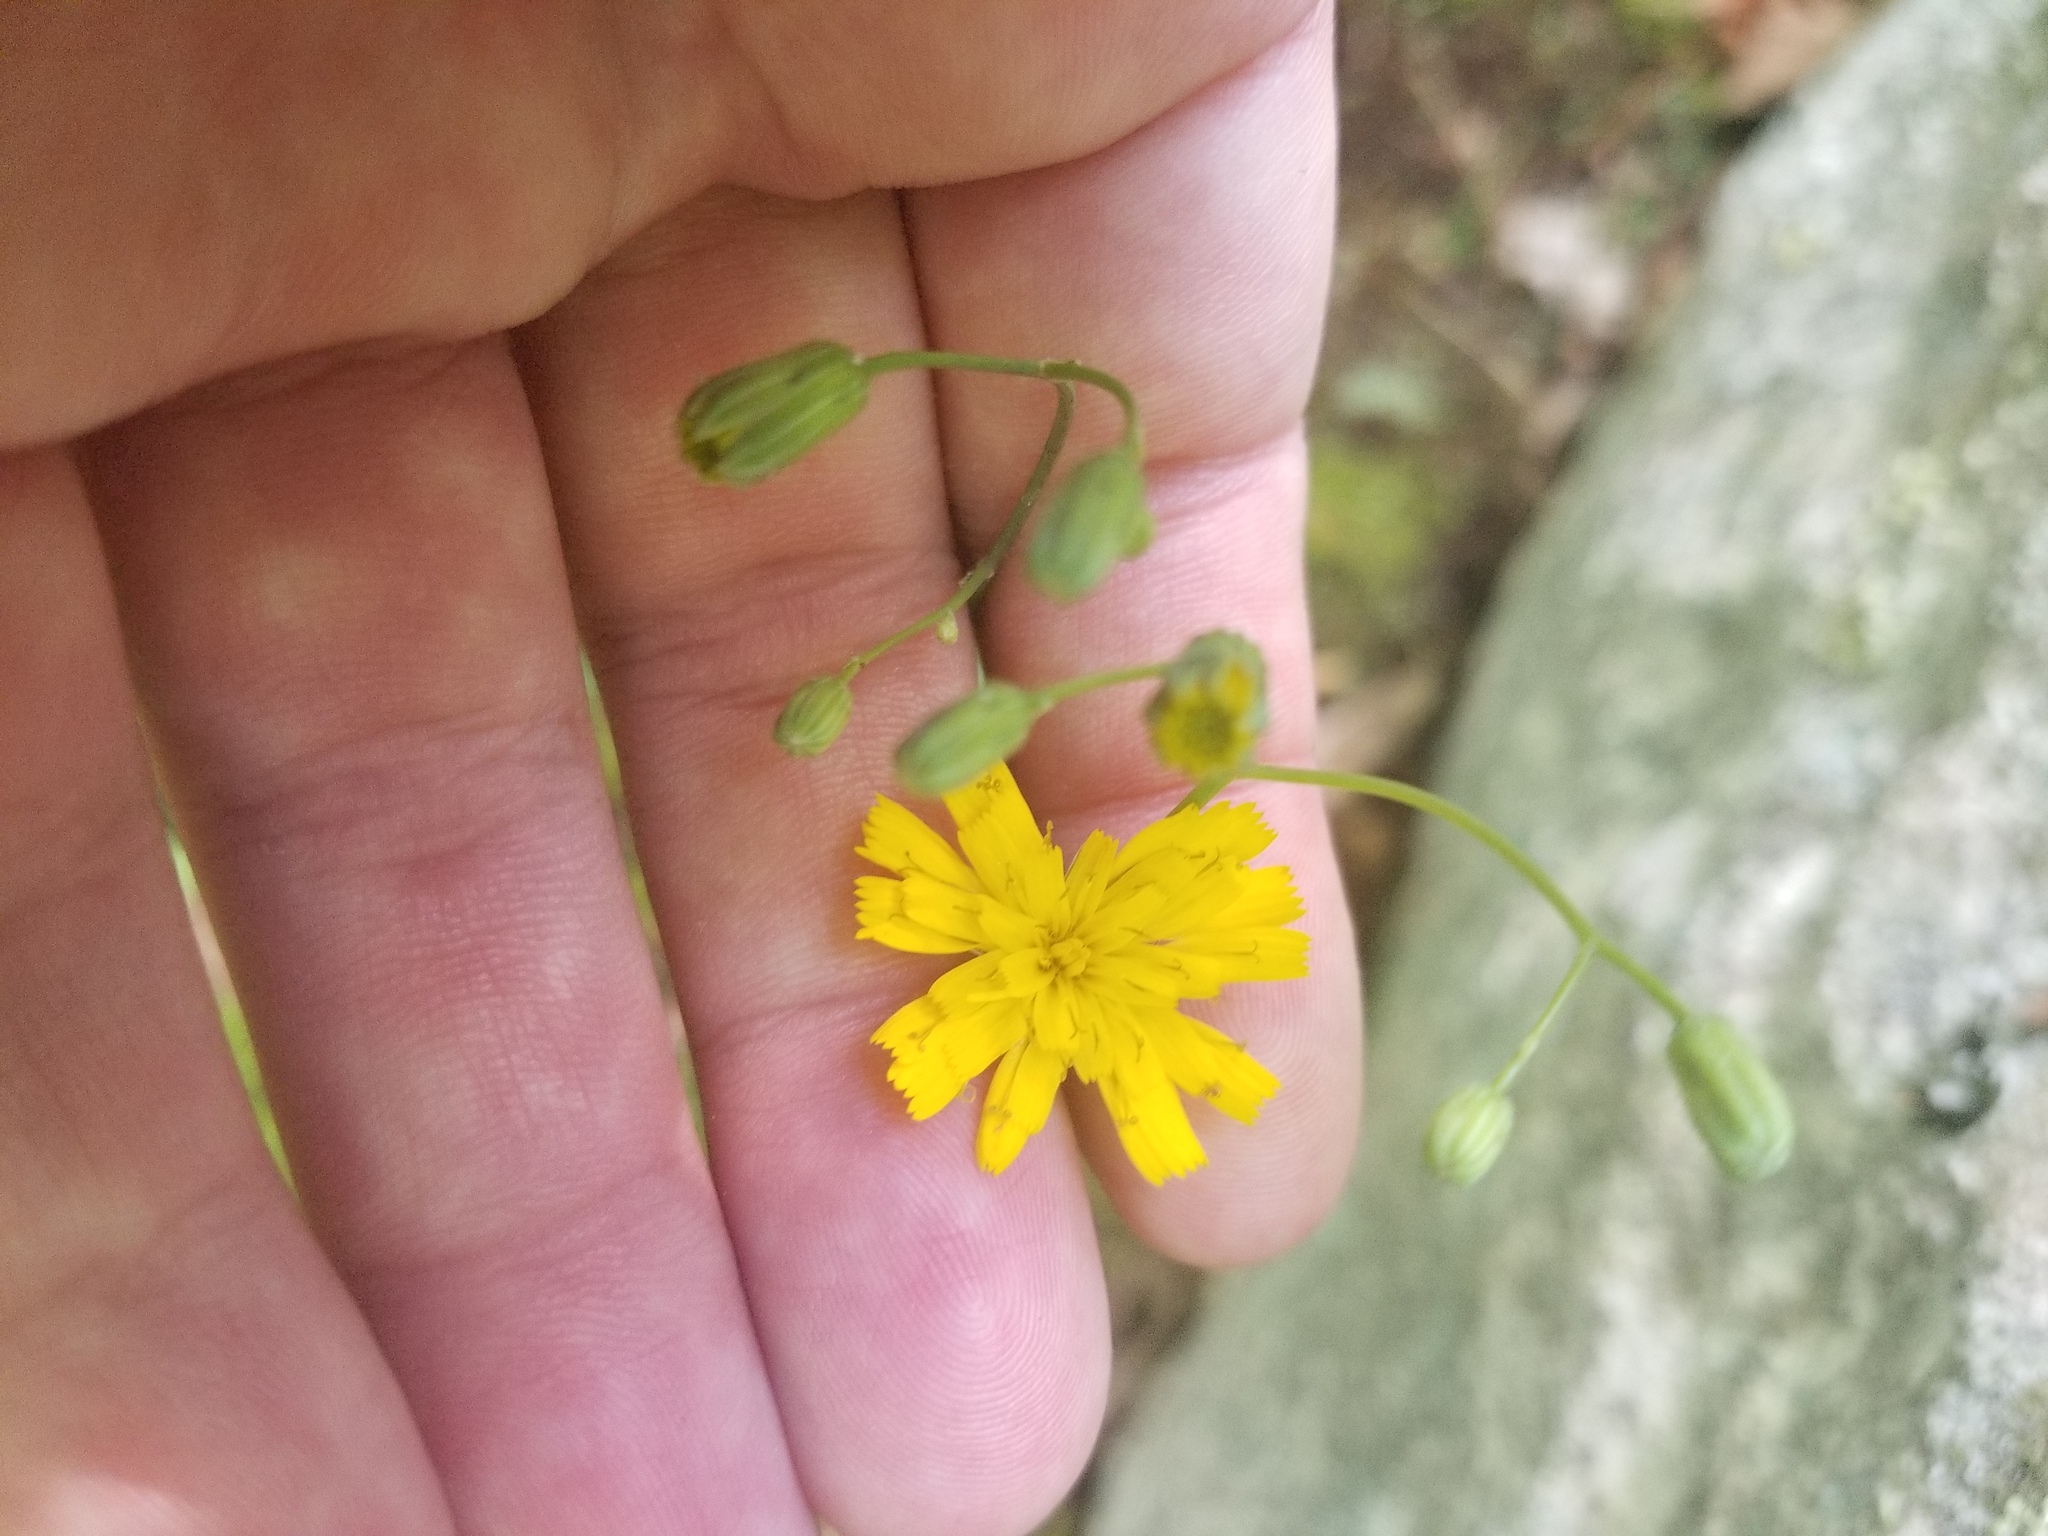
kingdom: Plantae
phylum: Tracheophyta
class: Magnoliopsida
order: Asterales
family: Asteraceae
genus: Hieracium
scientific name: Hieracium venosum
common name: Rattlesnake hawkweed
